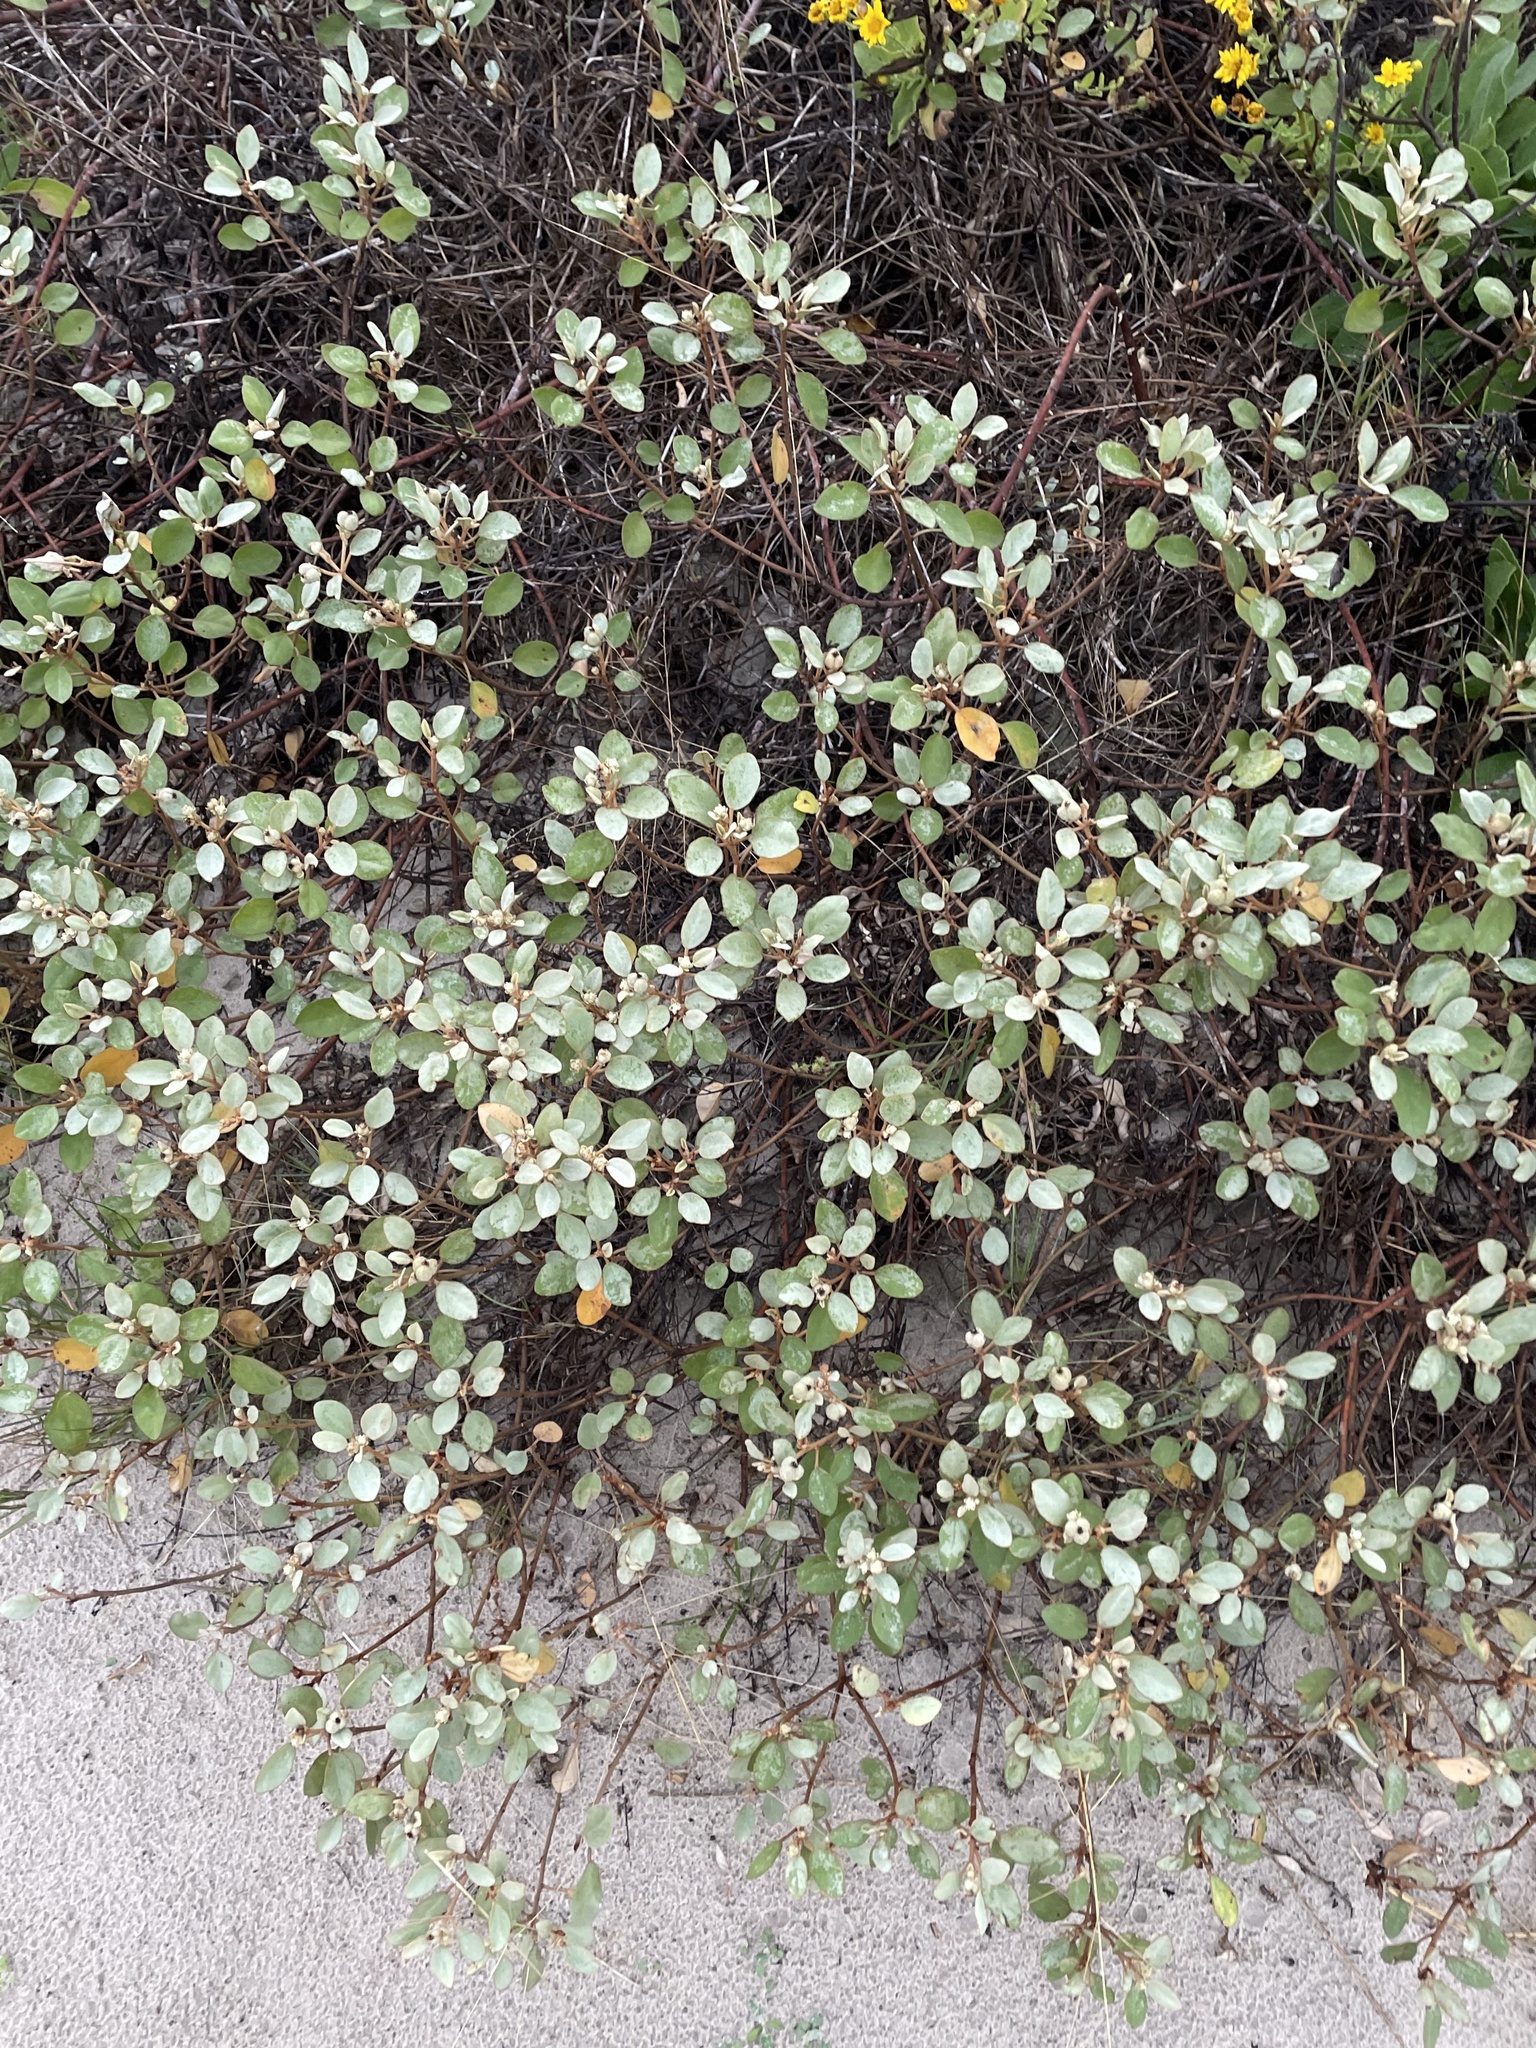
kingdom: Plantae
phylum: Tracheophyta
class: Magnoliopsida
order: Malpighiales
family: Euphorbiaceae
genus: Croton
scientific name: Croton punctatus
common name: Beach-tea
